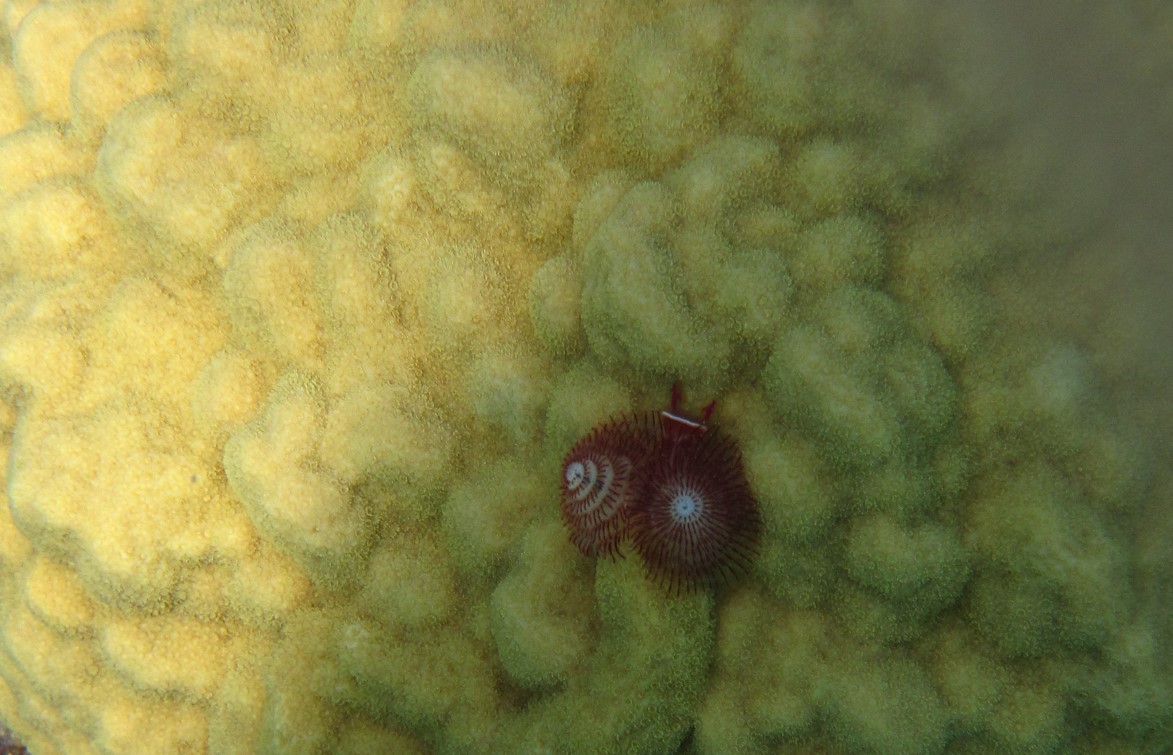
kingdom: Animalia
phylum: Annelida
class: Polychaeta
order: Sabellida
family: Serpulidae
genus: Spirobranchus
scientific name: Spirobranchus giganteus
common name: Christmas tree worm
